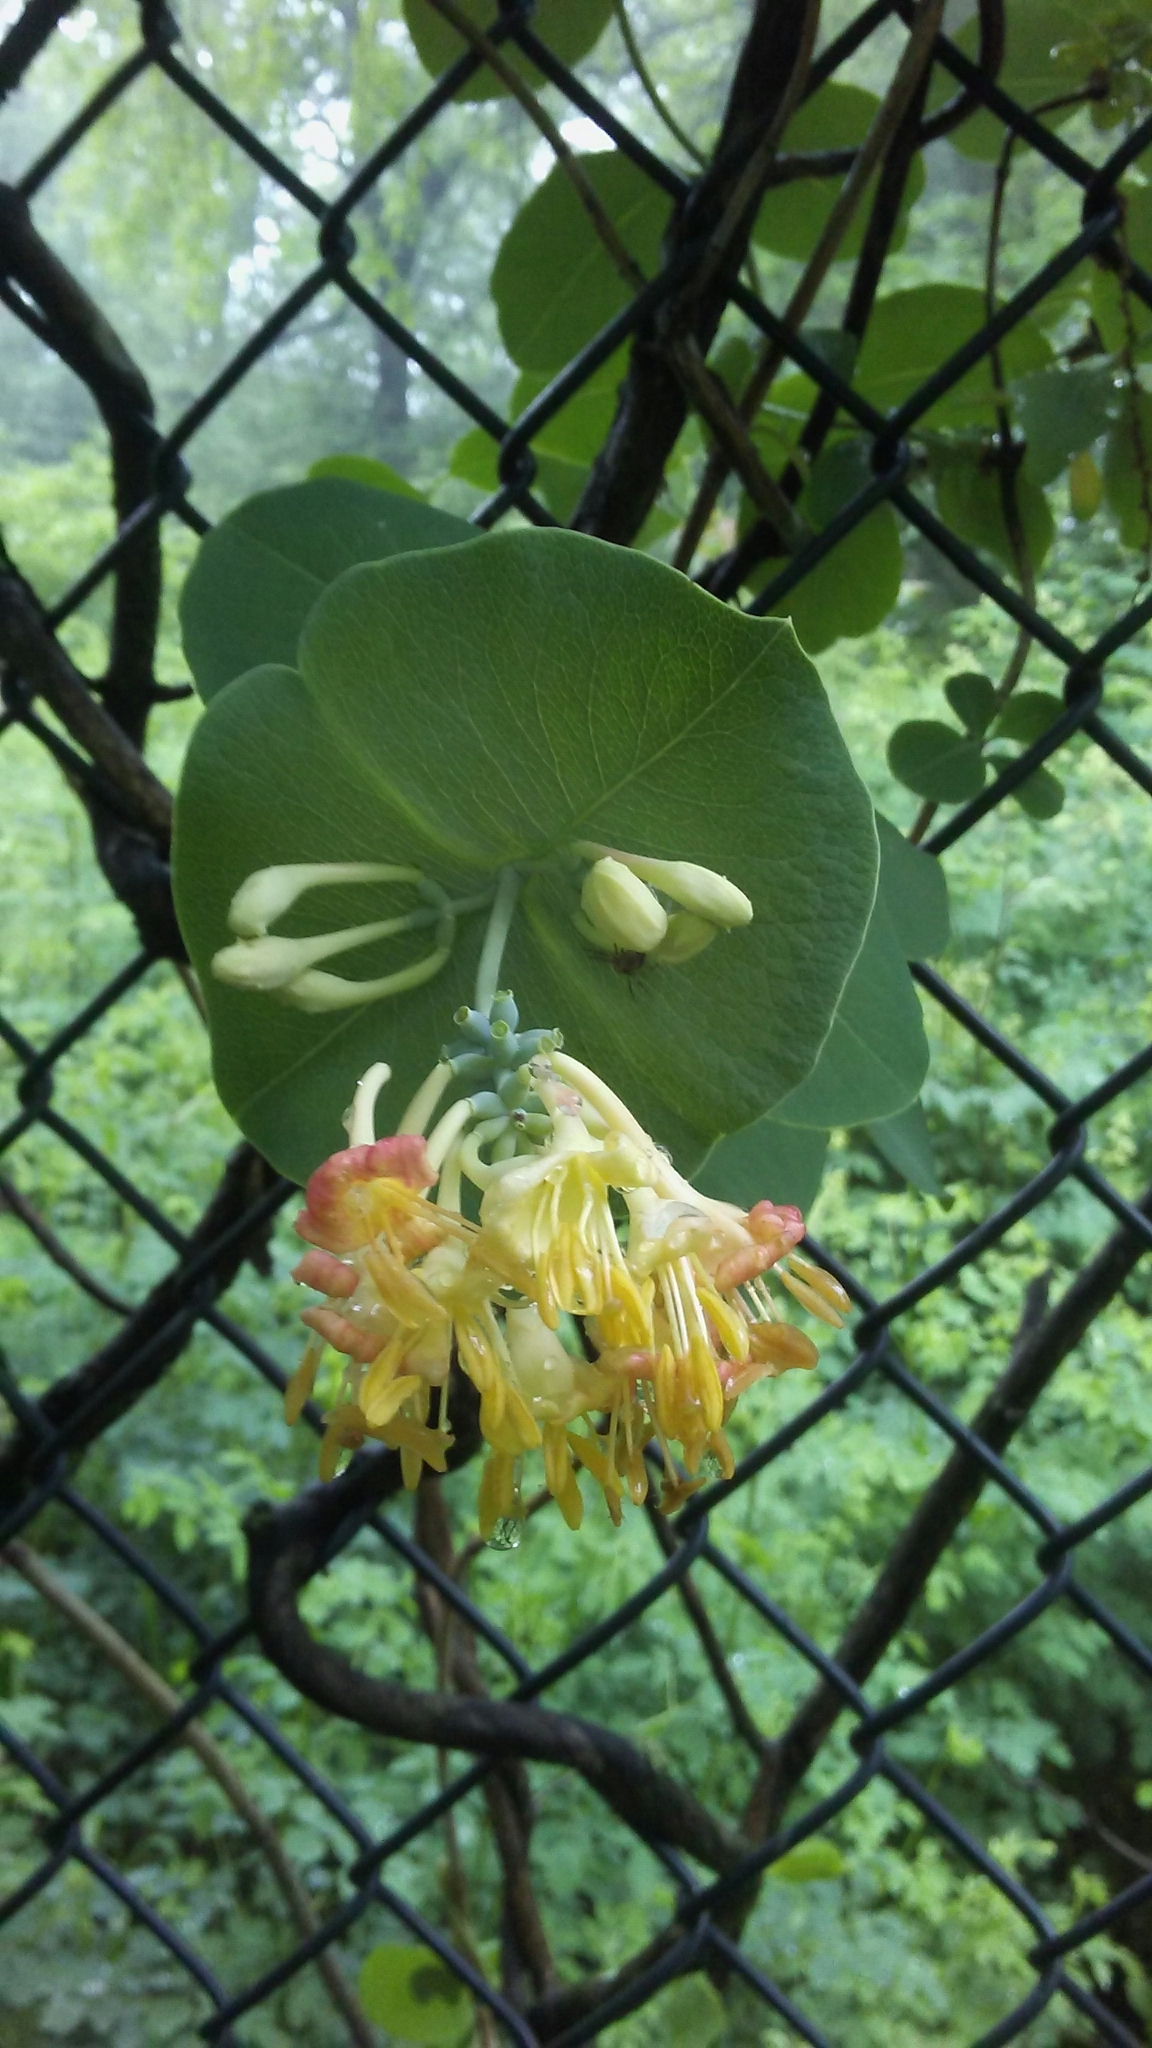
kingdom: Plantae
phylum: Tracheophyta
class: Magnoliopsida
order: Dipsacales
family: Caprifoliaceae
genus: Lonicera
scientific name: Lonicera reticulata
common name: Grape honeysuckle
